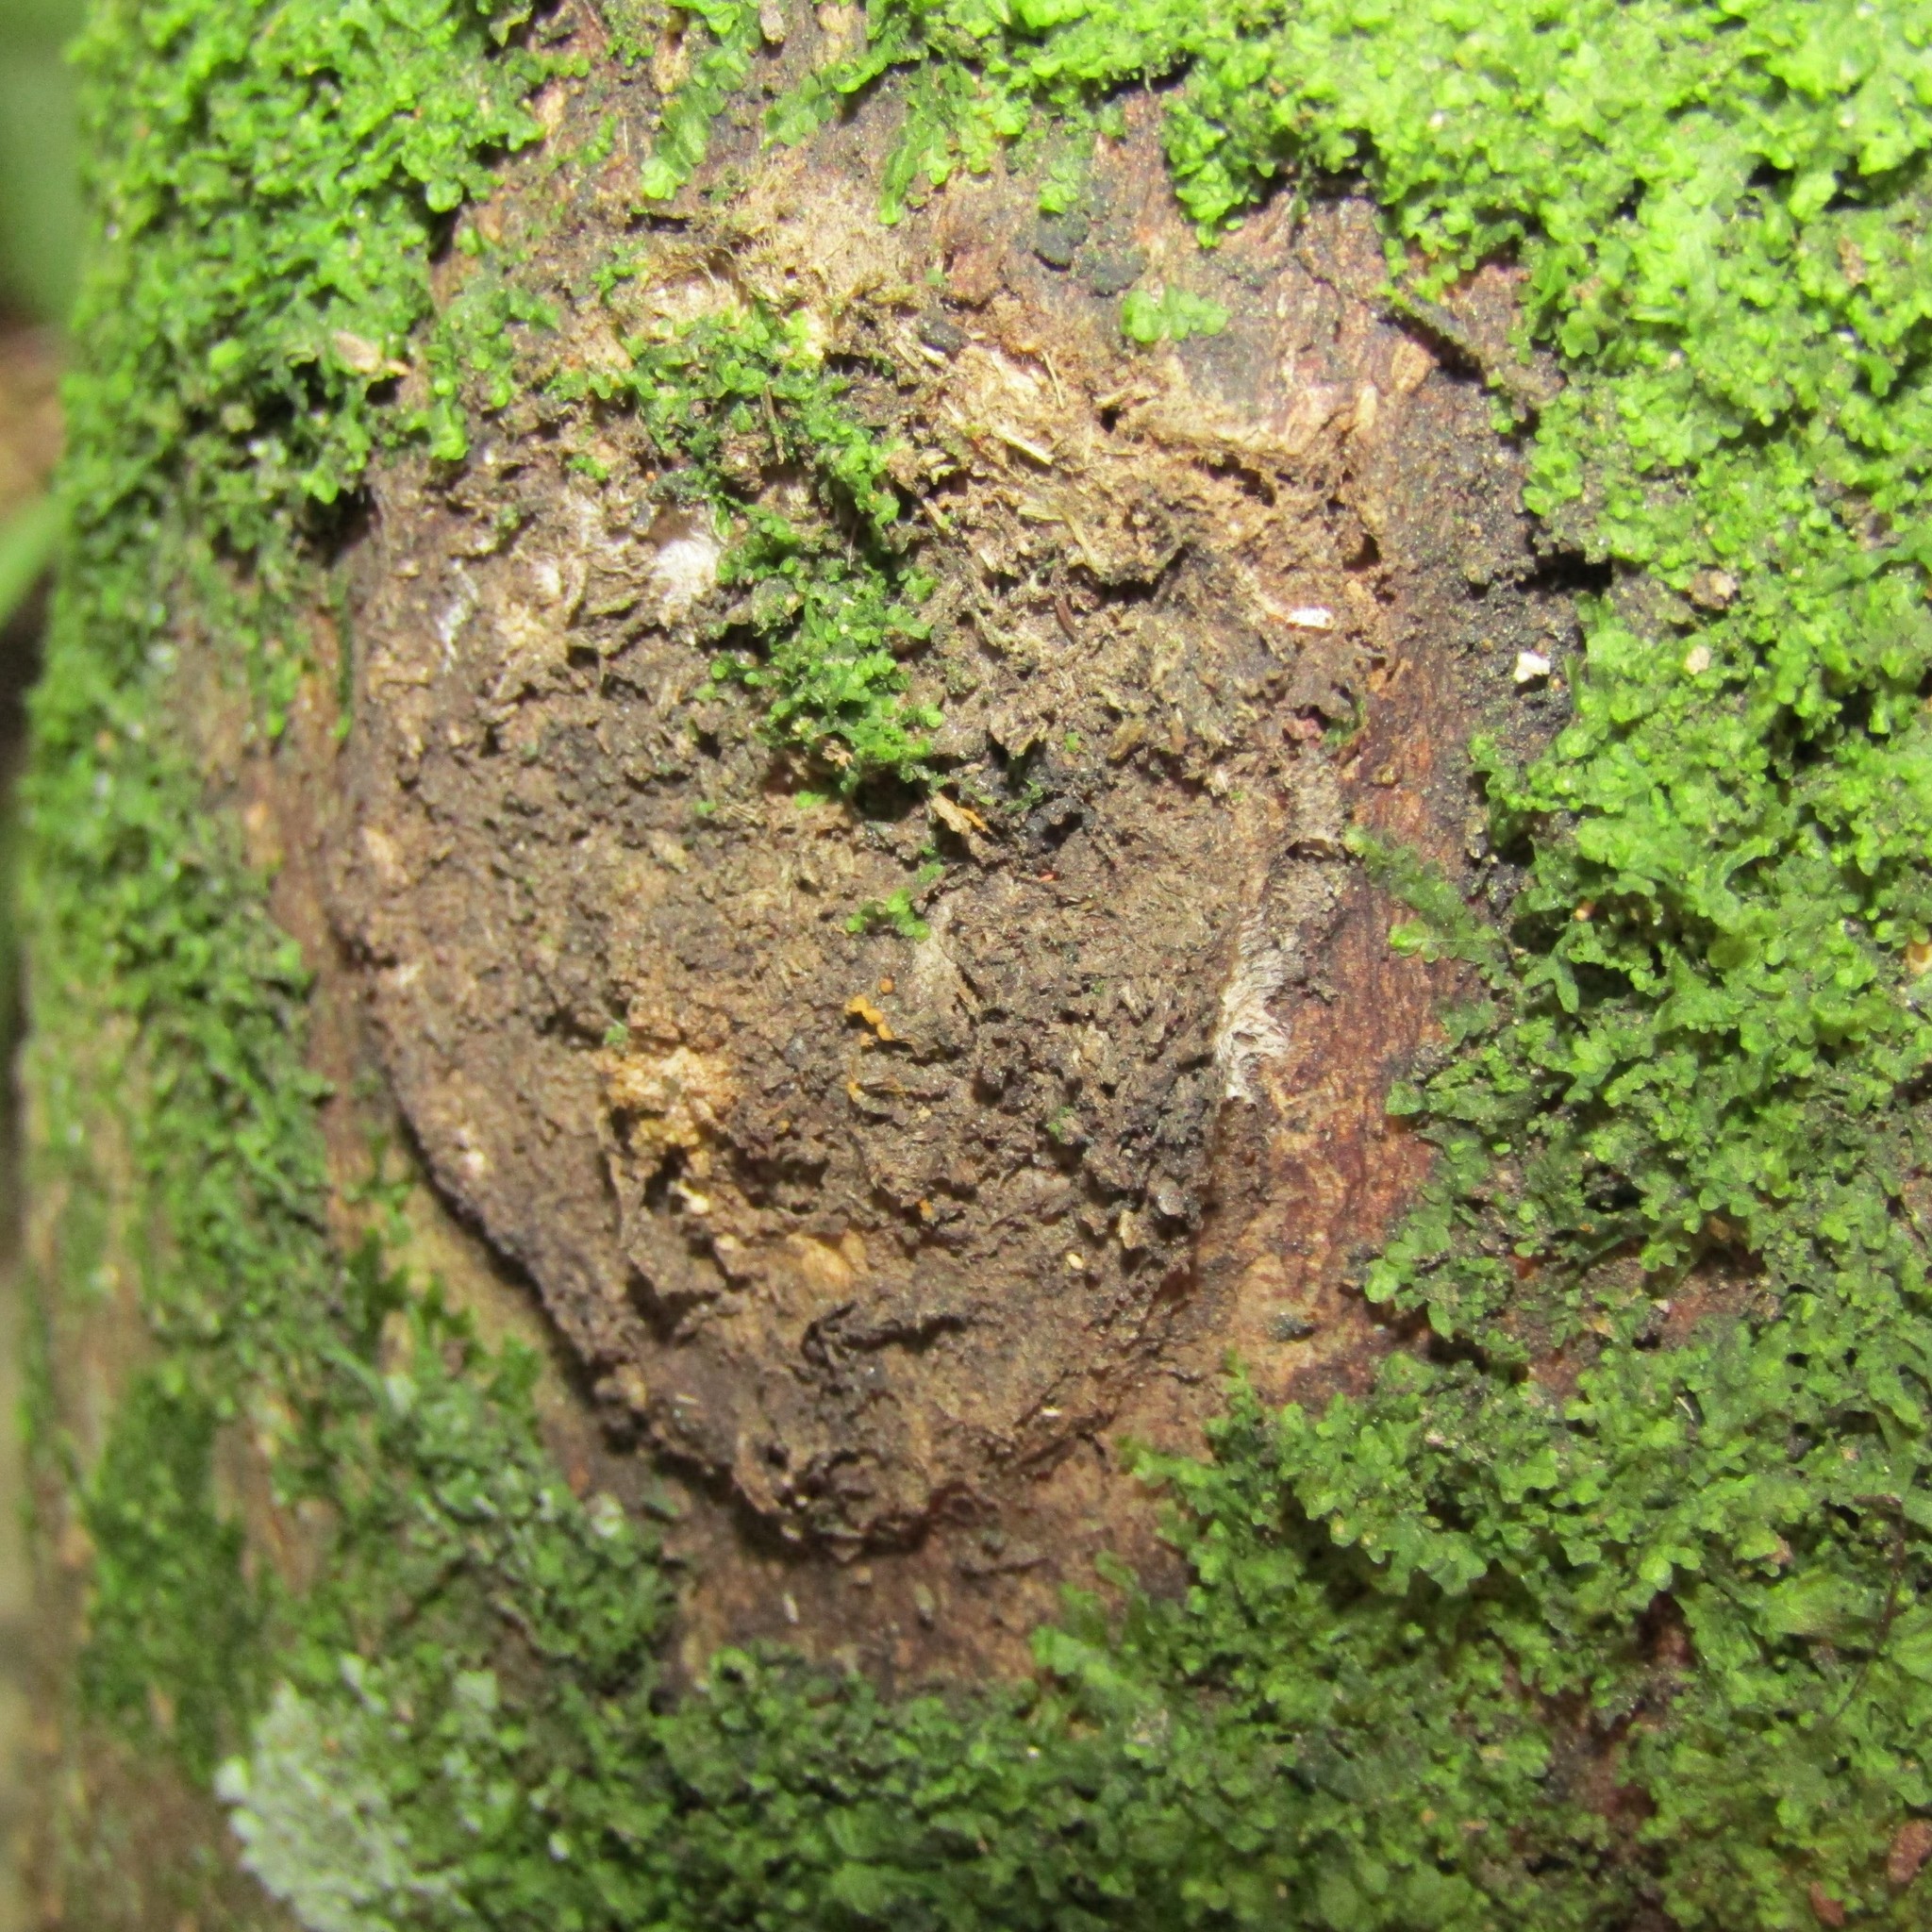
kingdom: Animalia
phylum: Arthropoda
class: Insecta
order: Lepidoptera
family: Hepialidae
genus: Aenetus
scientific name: Aenetus virescens
